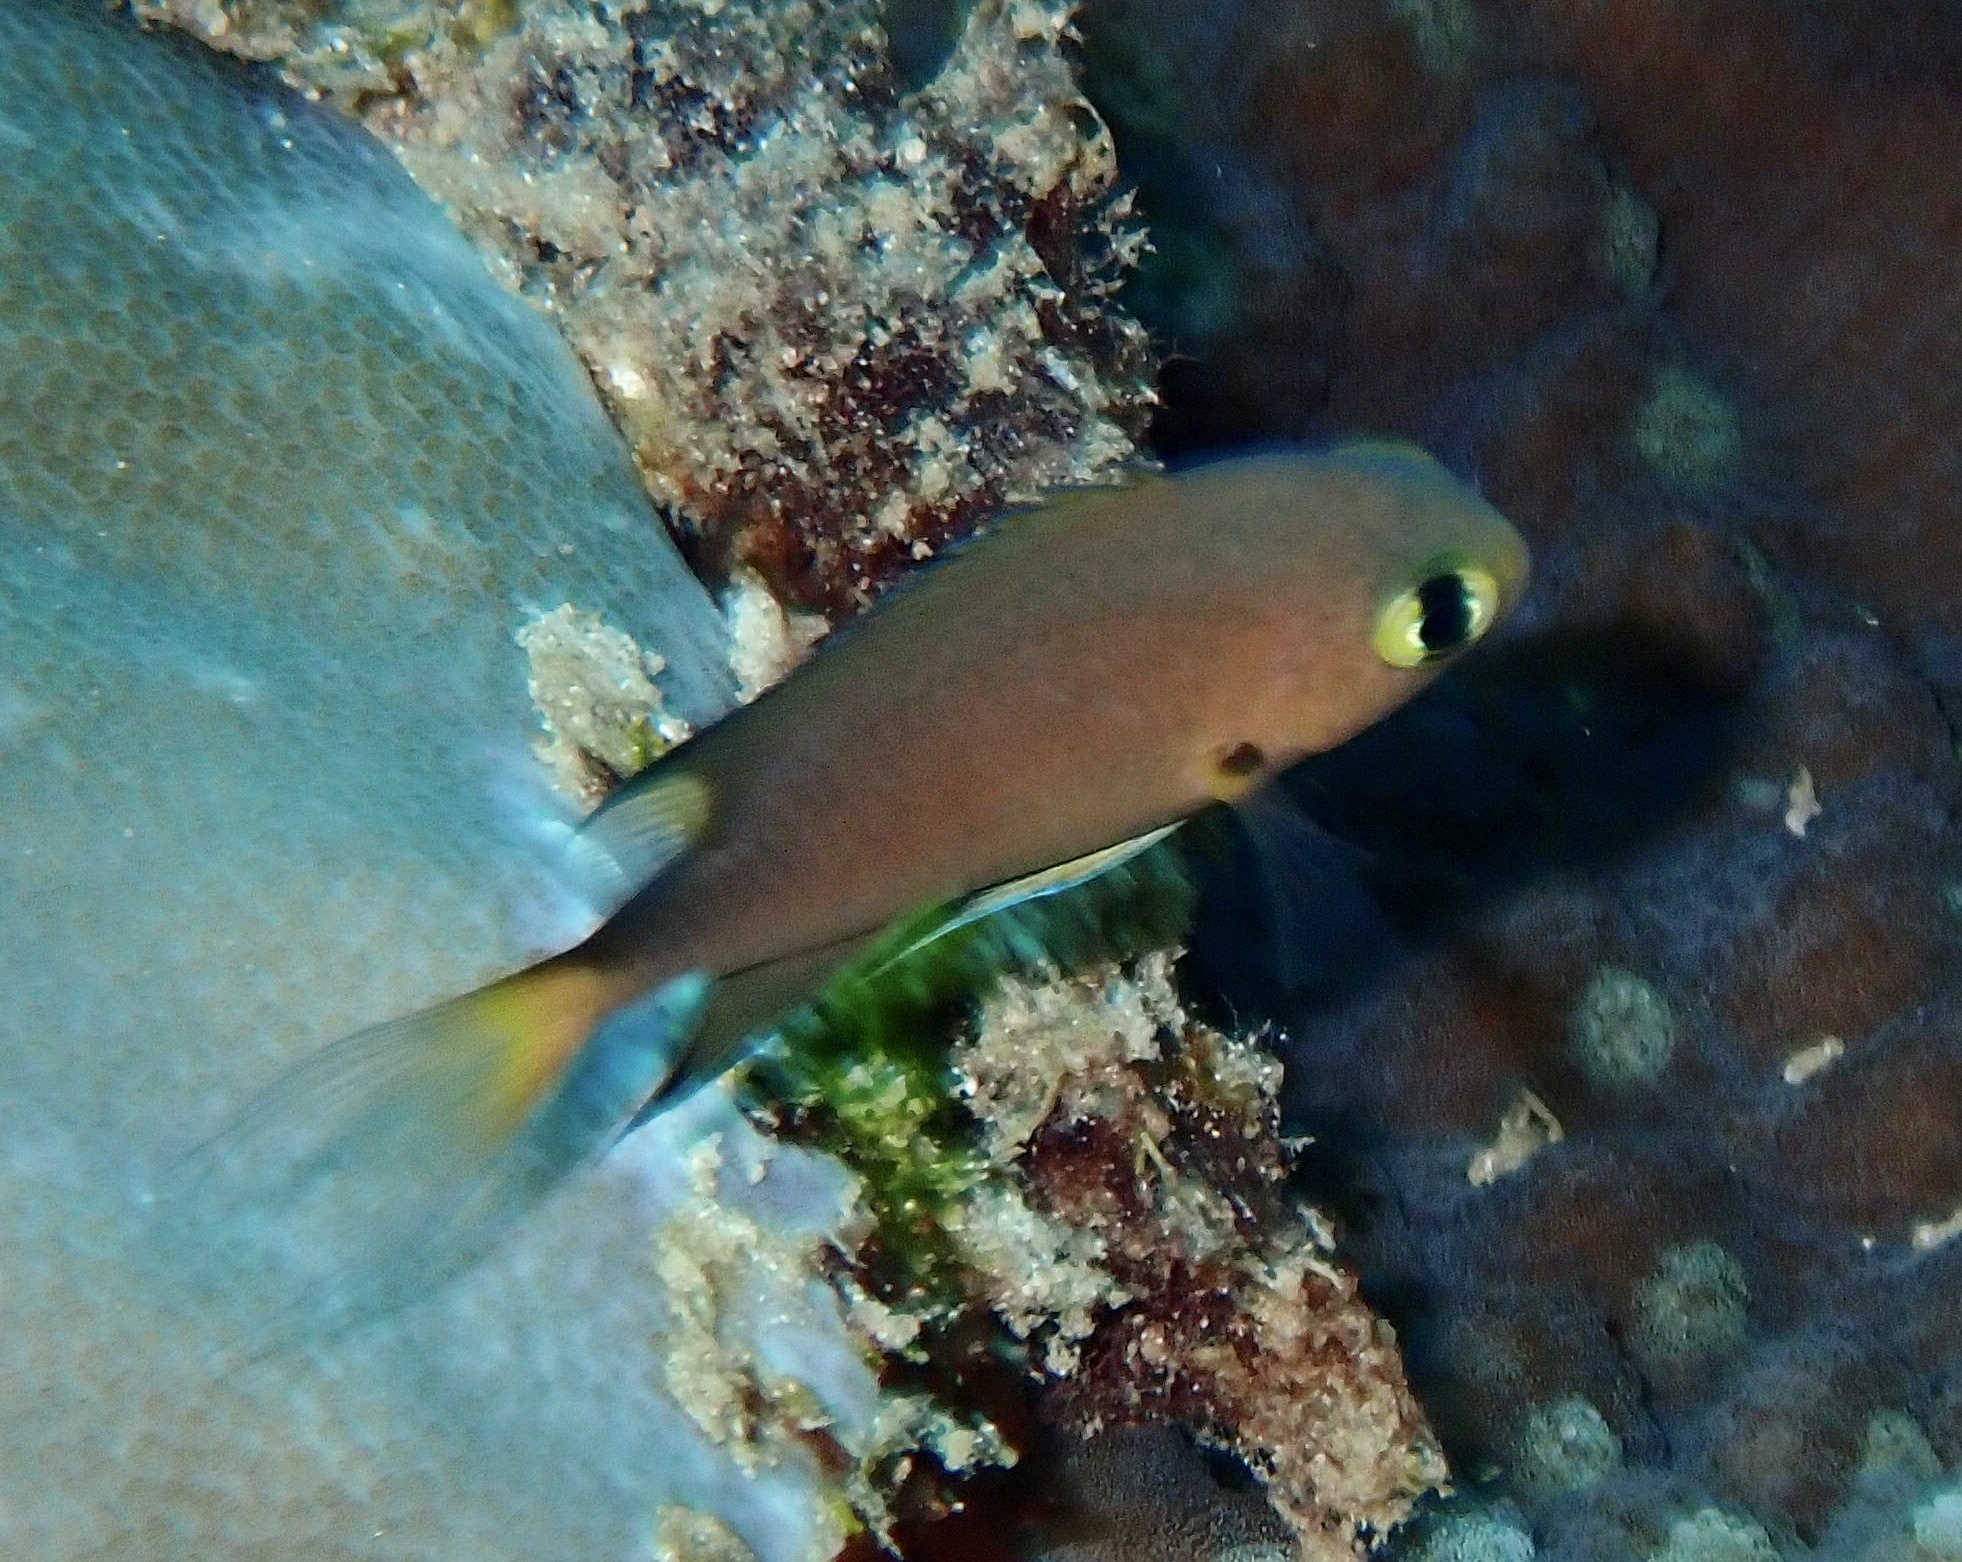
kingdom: Animalia
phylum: Chordata
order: Perciformes
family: Pomacentridae
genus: Chromis
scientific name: Chromis atripes
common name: Dark-fin chromis
